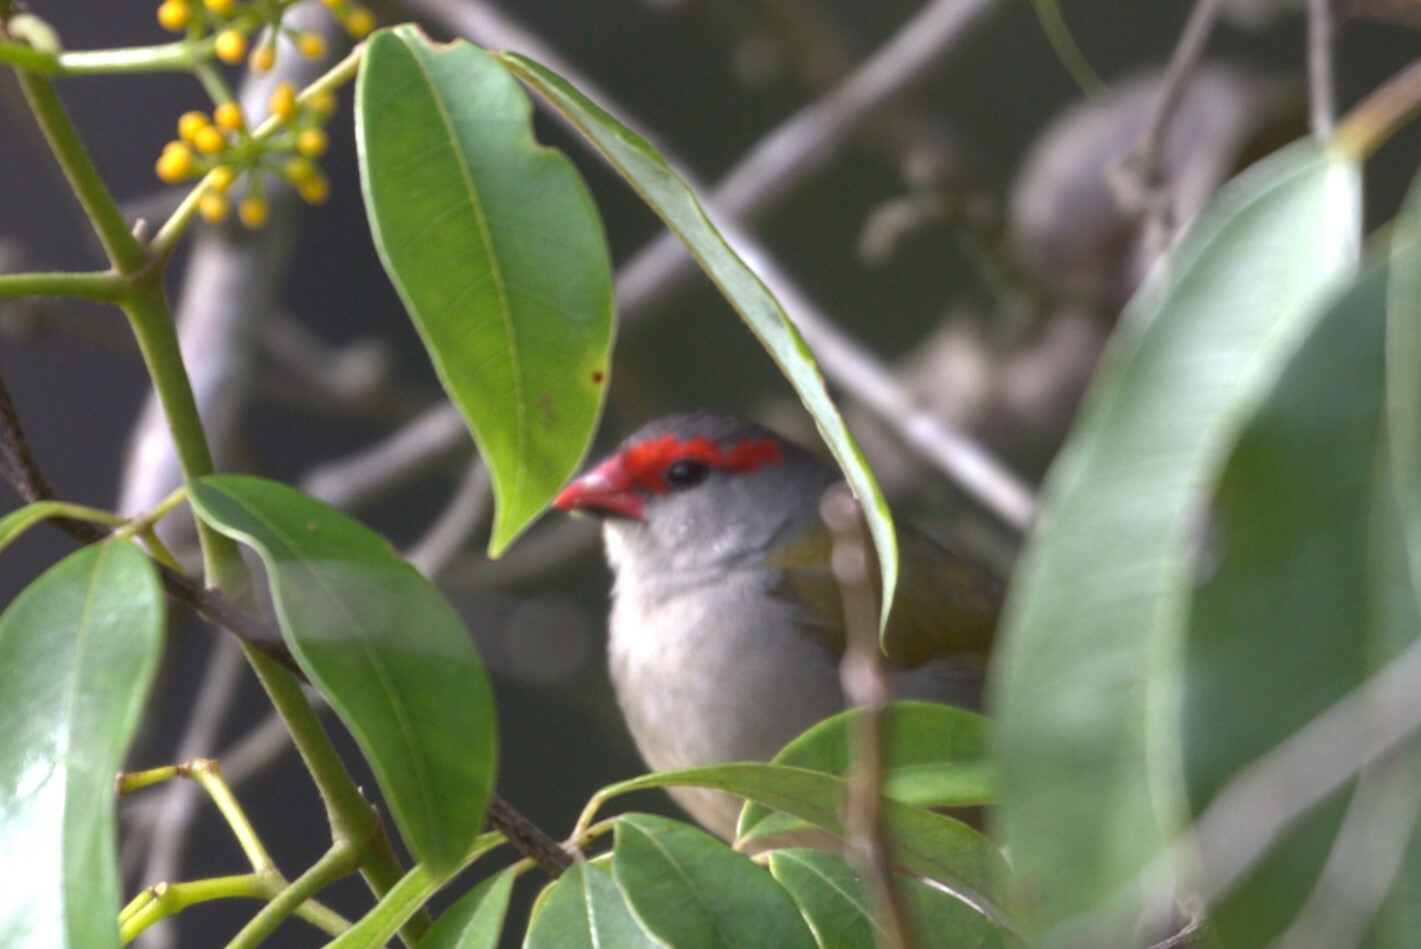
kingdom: Animalia
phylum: Chordata
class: Aves
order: Passeriformes
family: Estrildidae
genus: Neochmia
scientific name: Neochmia temporalis
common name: Red-browed finch
